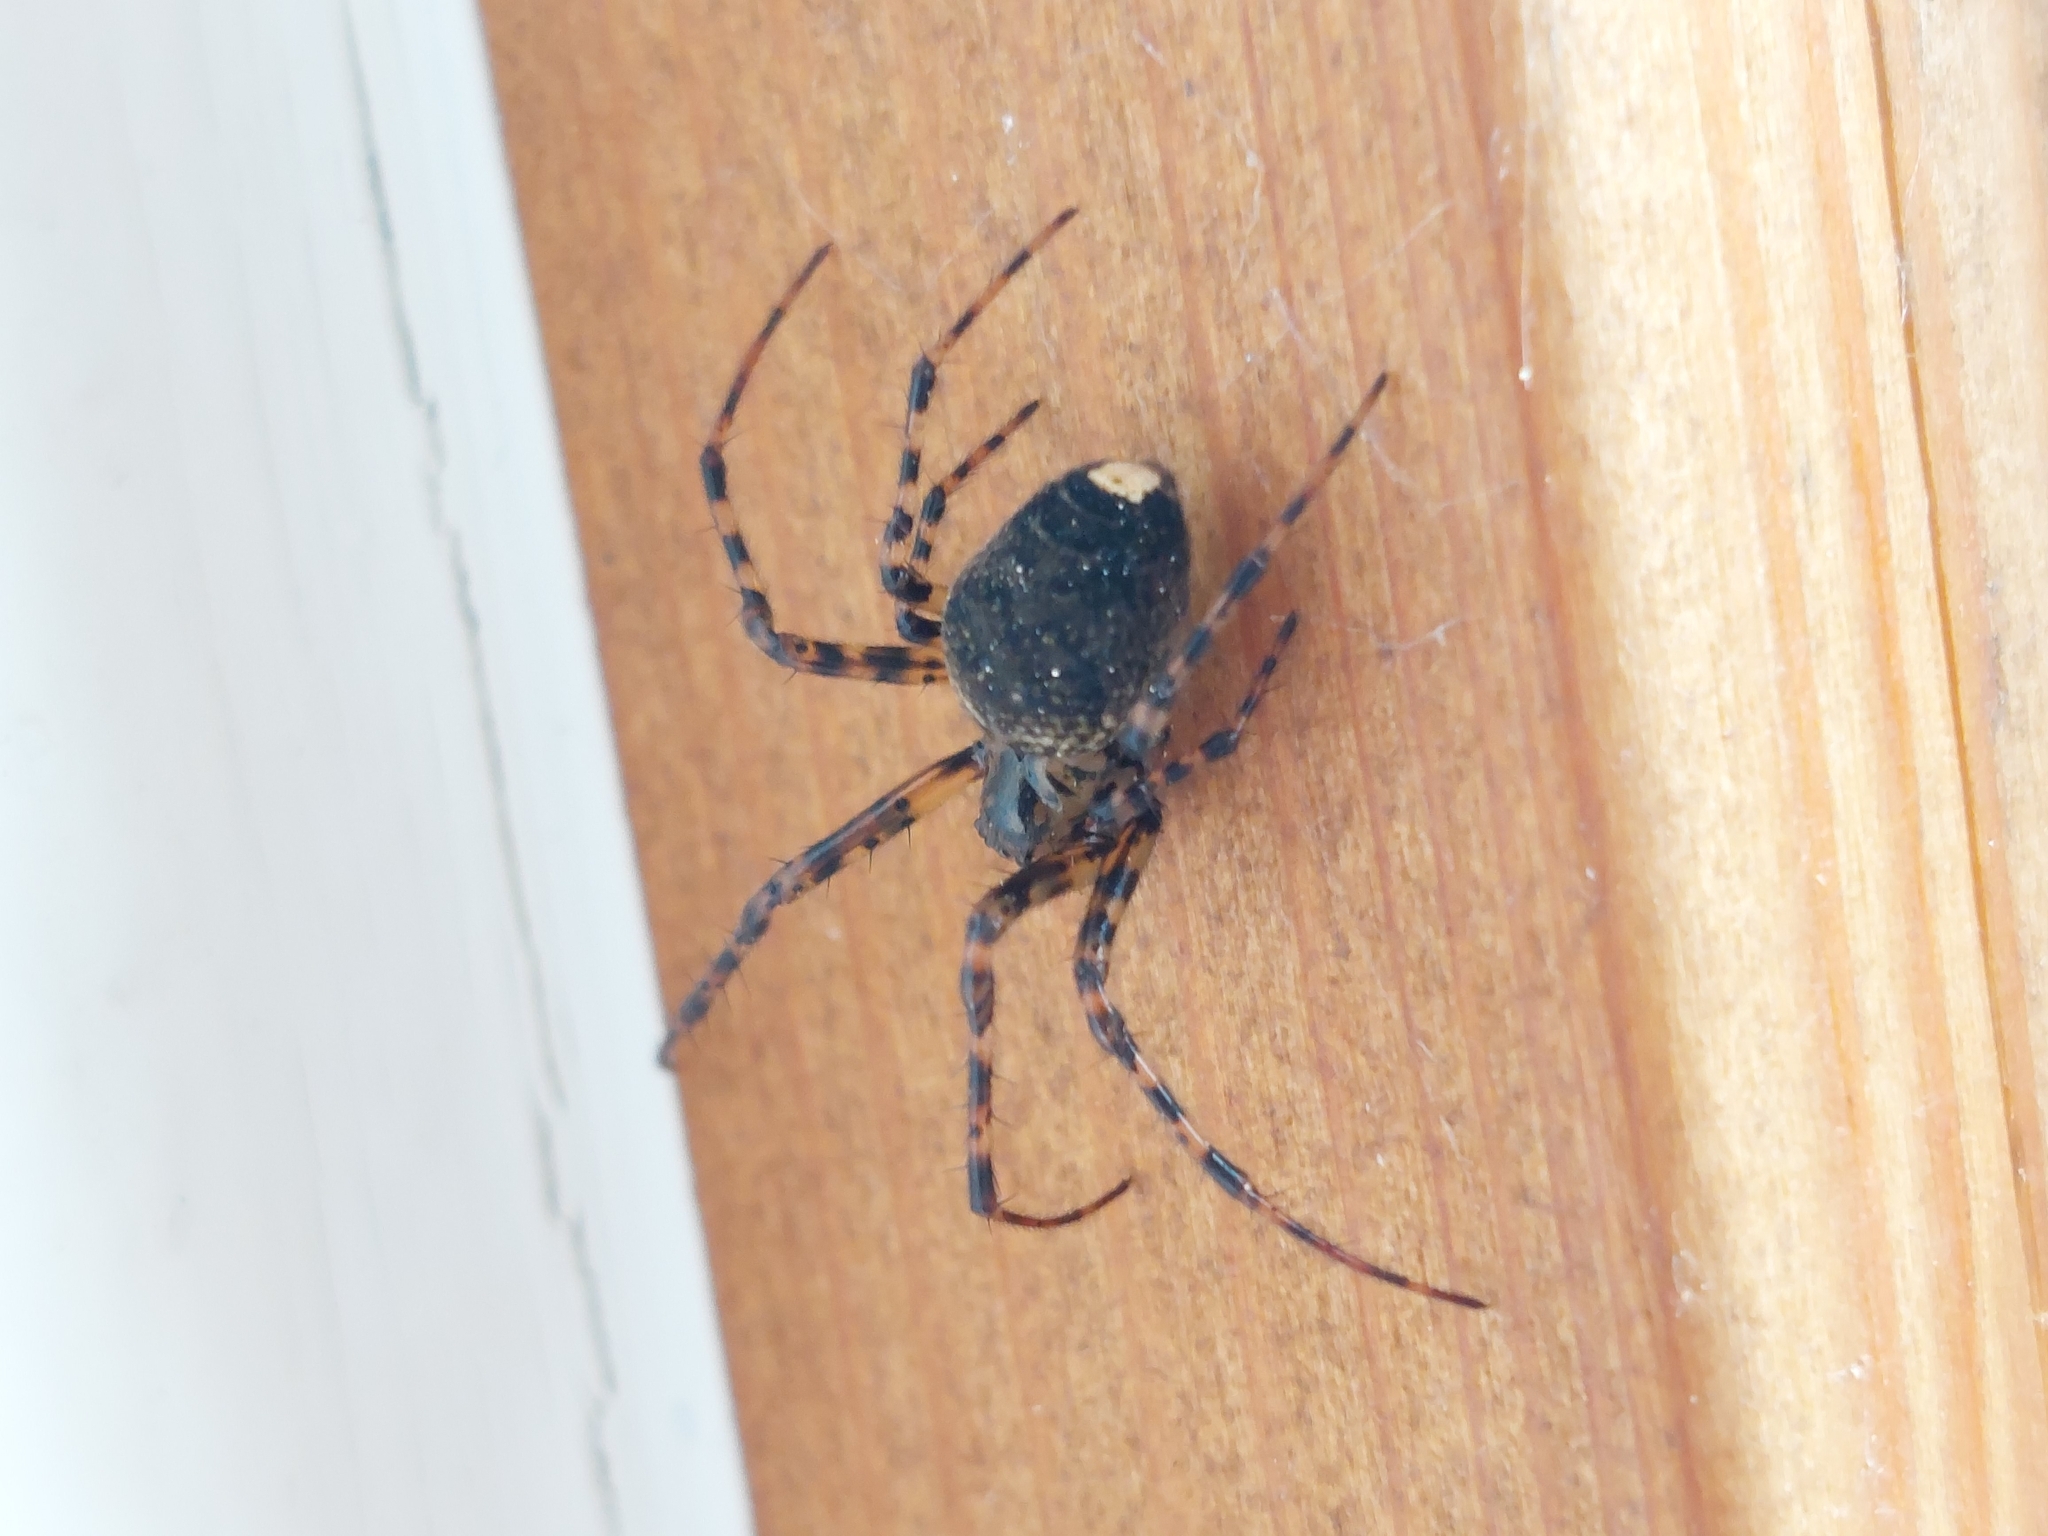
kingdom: Animalia
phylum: Arthropoda
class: Arachnida
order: Araneae
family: Tetragnathidae
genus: Metellina
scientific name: Metellina merianae
